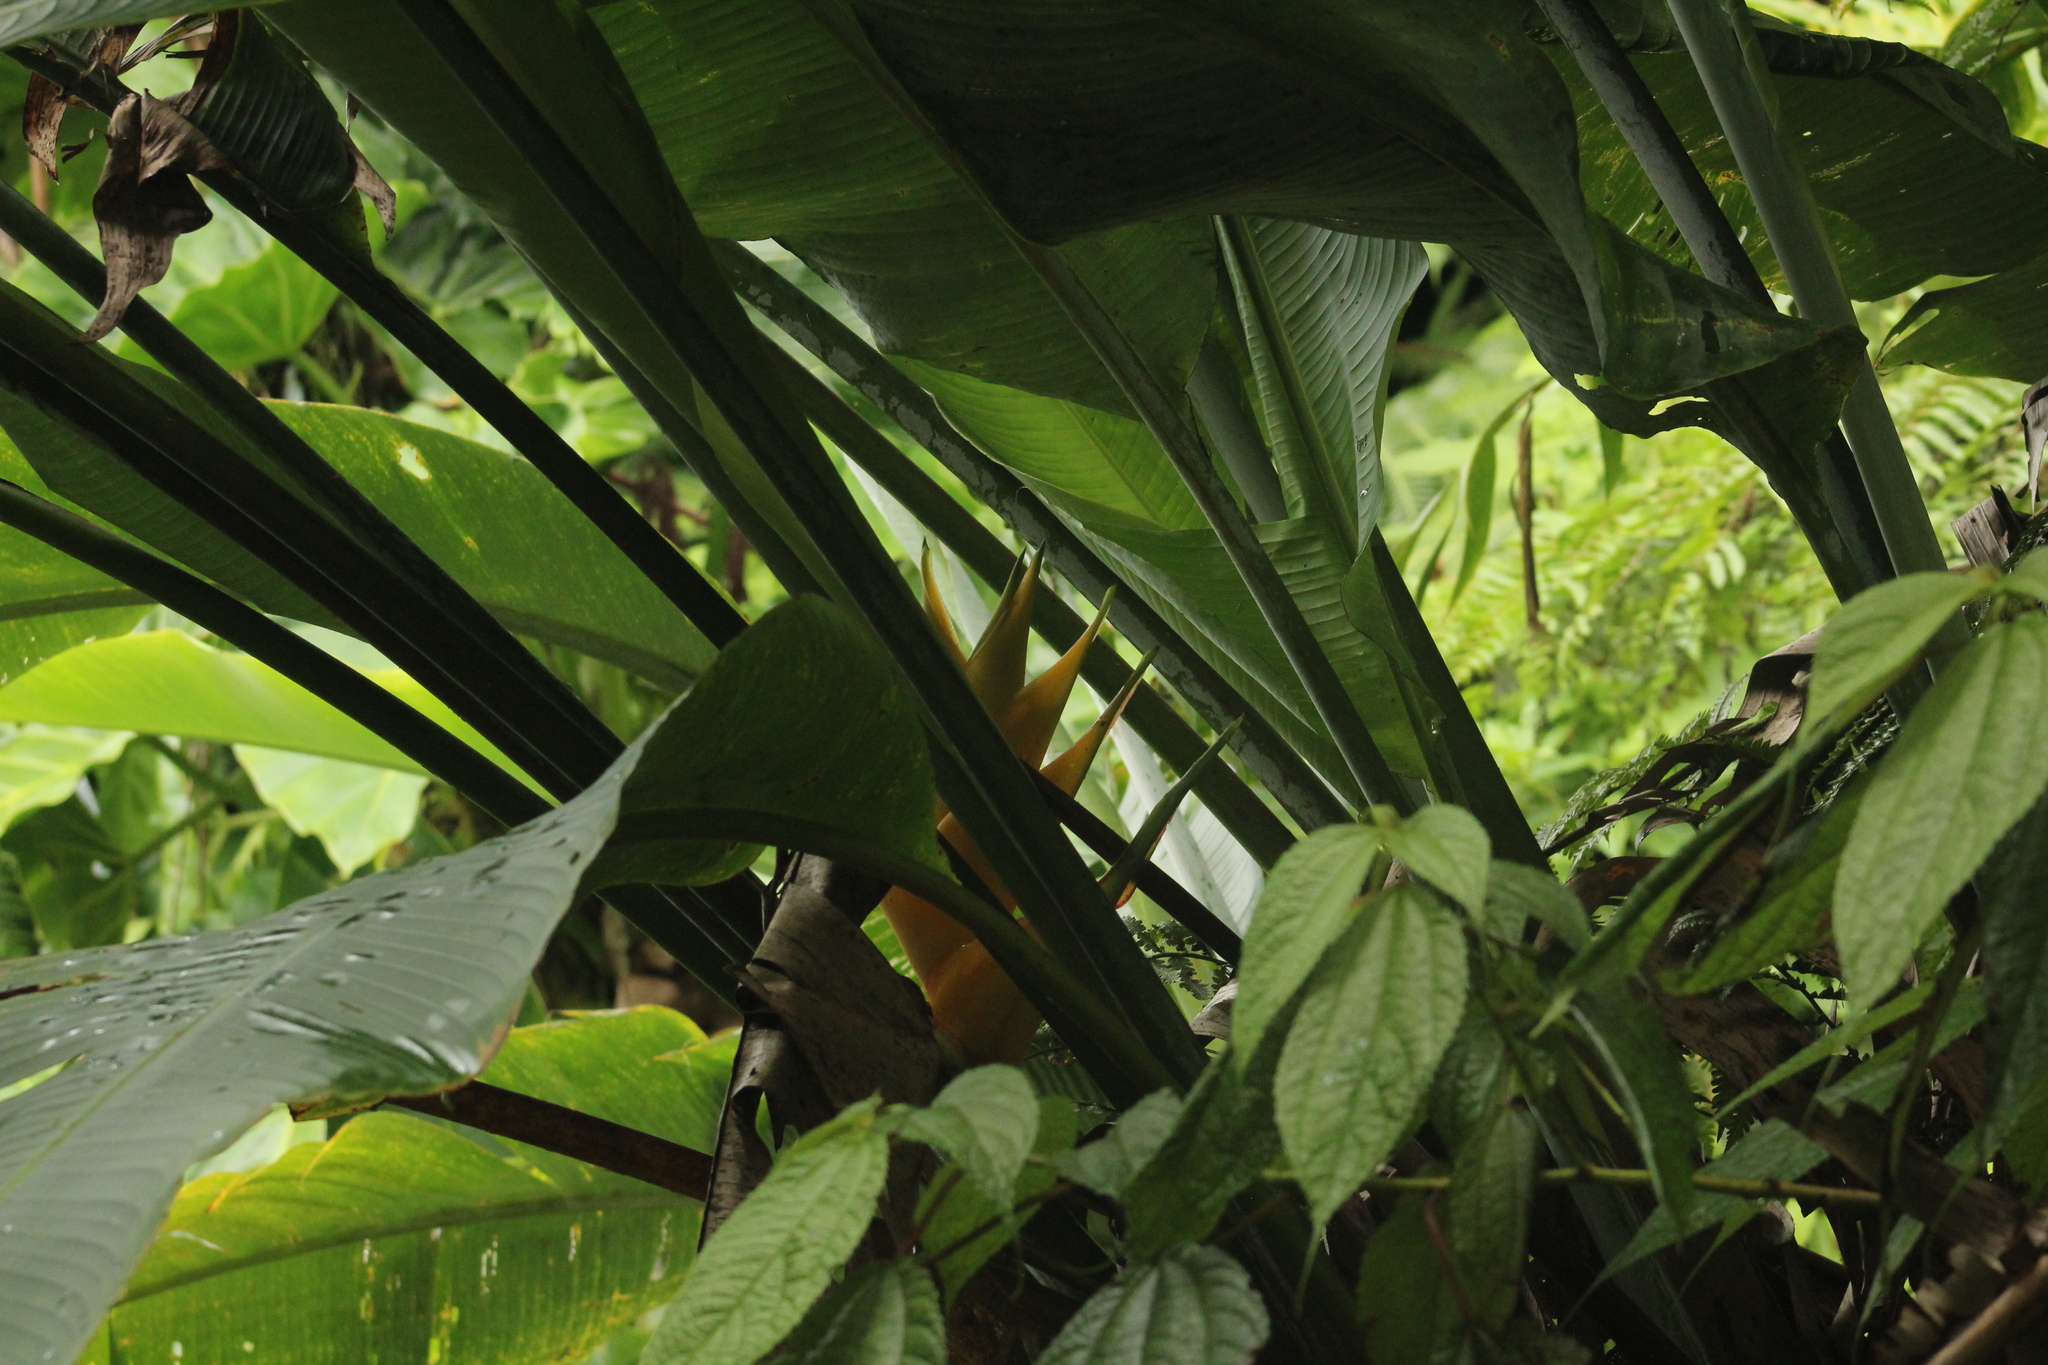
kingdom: Plantae
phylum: Tracheophyta
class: Liliopsida
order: Zingiberales
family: Heliconiaceae
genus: Heliconia
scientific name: Heliconia caribaea
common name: Wild plantain
